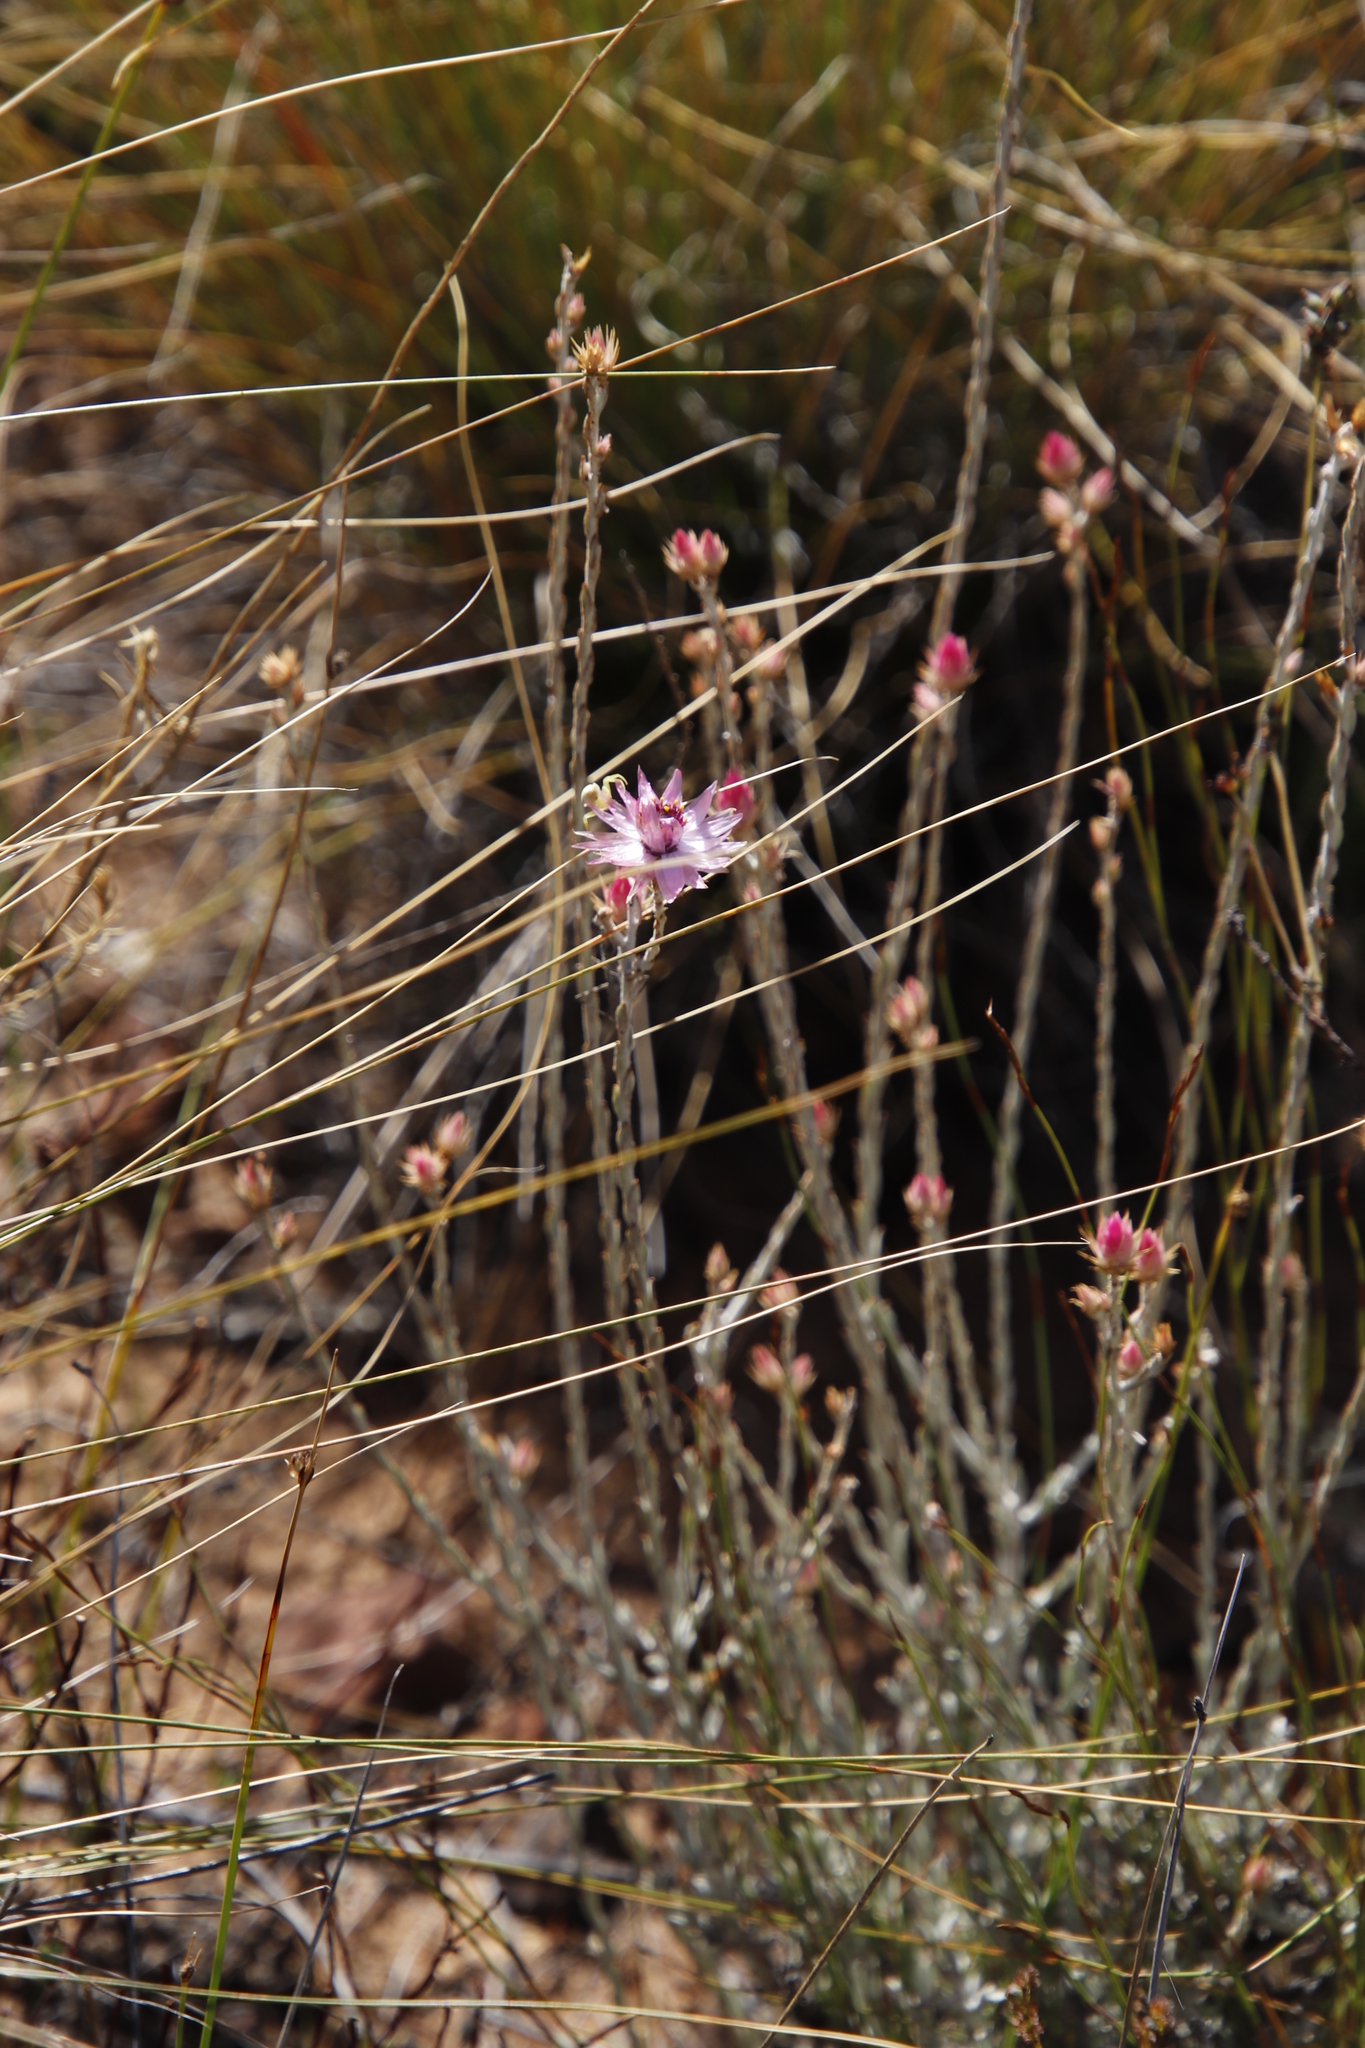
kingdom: Plantae
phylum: Tracheophyta
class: Magnoliopsida
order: Asterales
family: Asteraceae
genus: Syncarpha
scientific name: Syncarpha canescens
